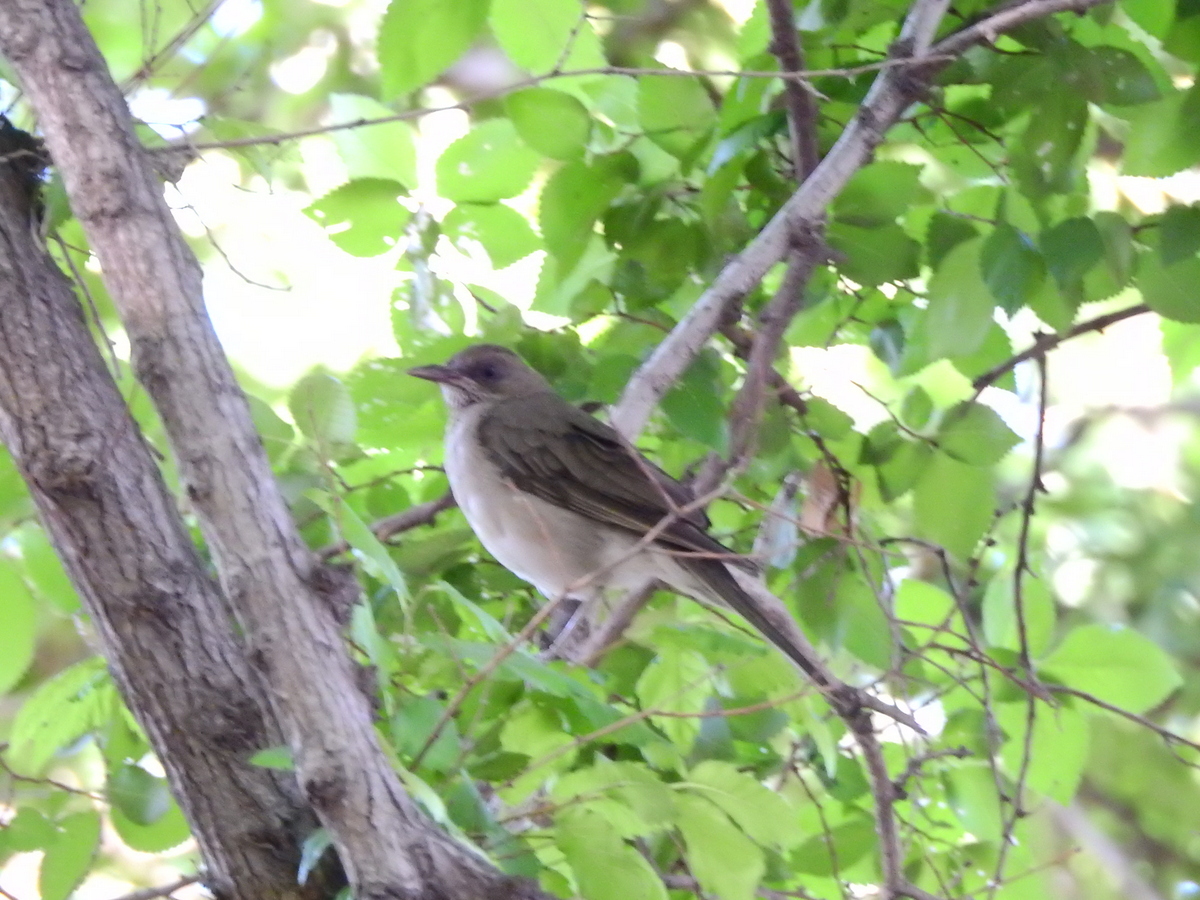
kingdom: Animalia
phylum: Chordata
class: Aves
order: Passeriformes
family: Turdidae
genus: Turdus
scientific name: Turdus amaurochalinus
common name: Creamy-bellied thrush
